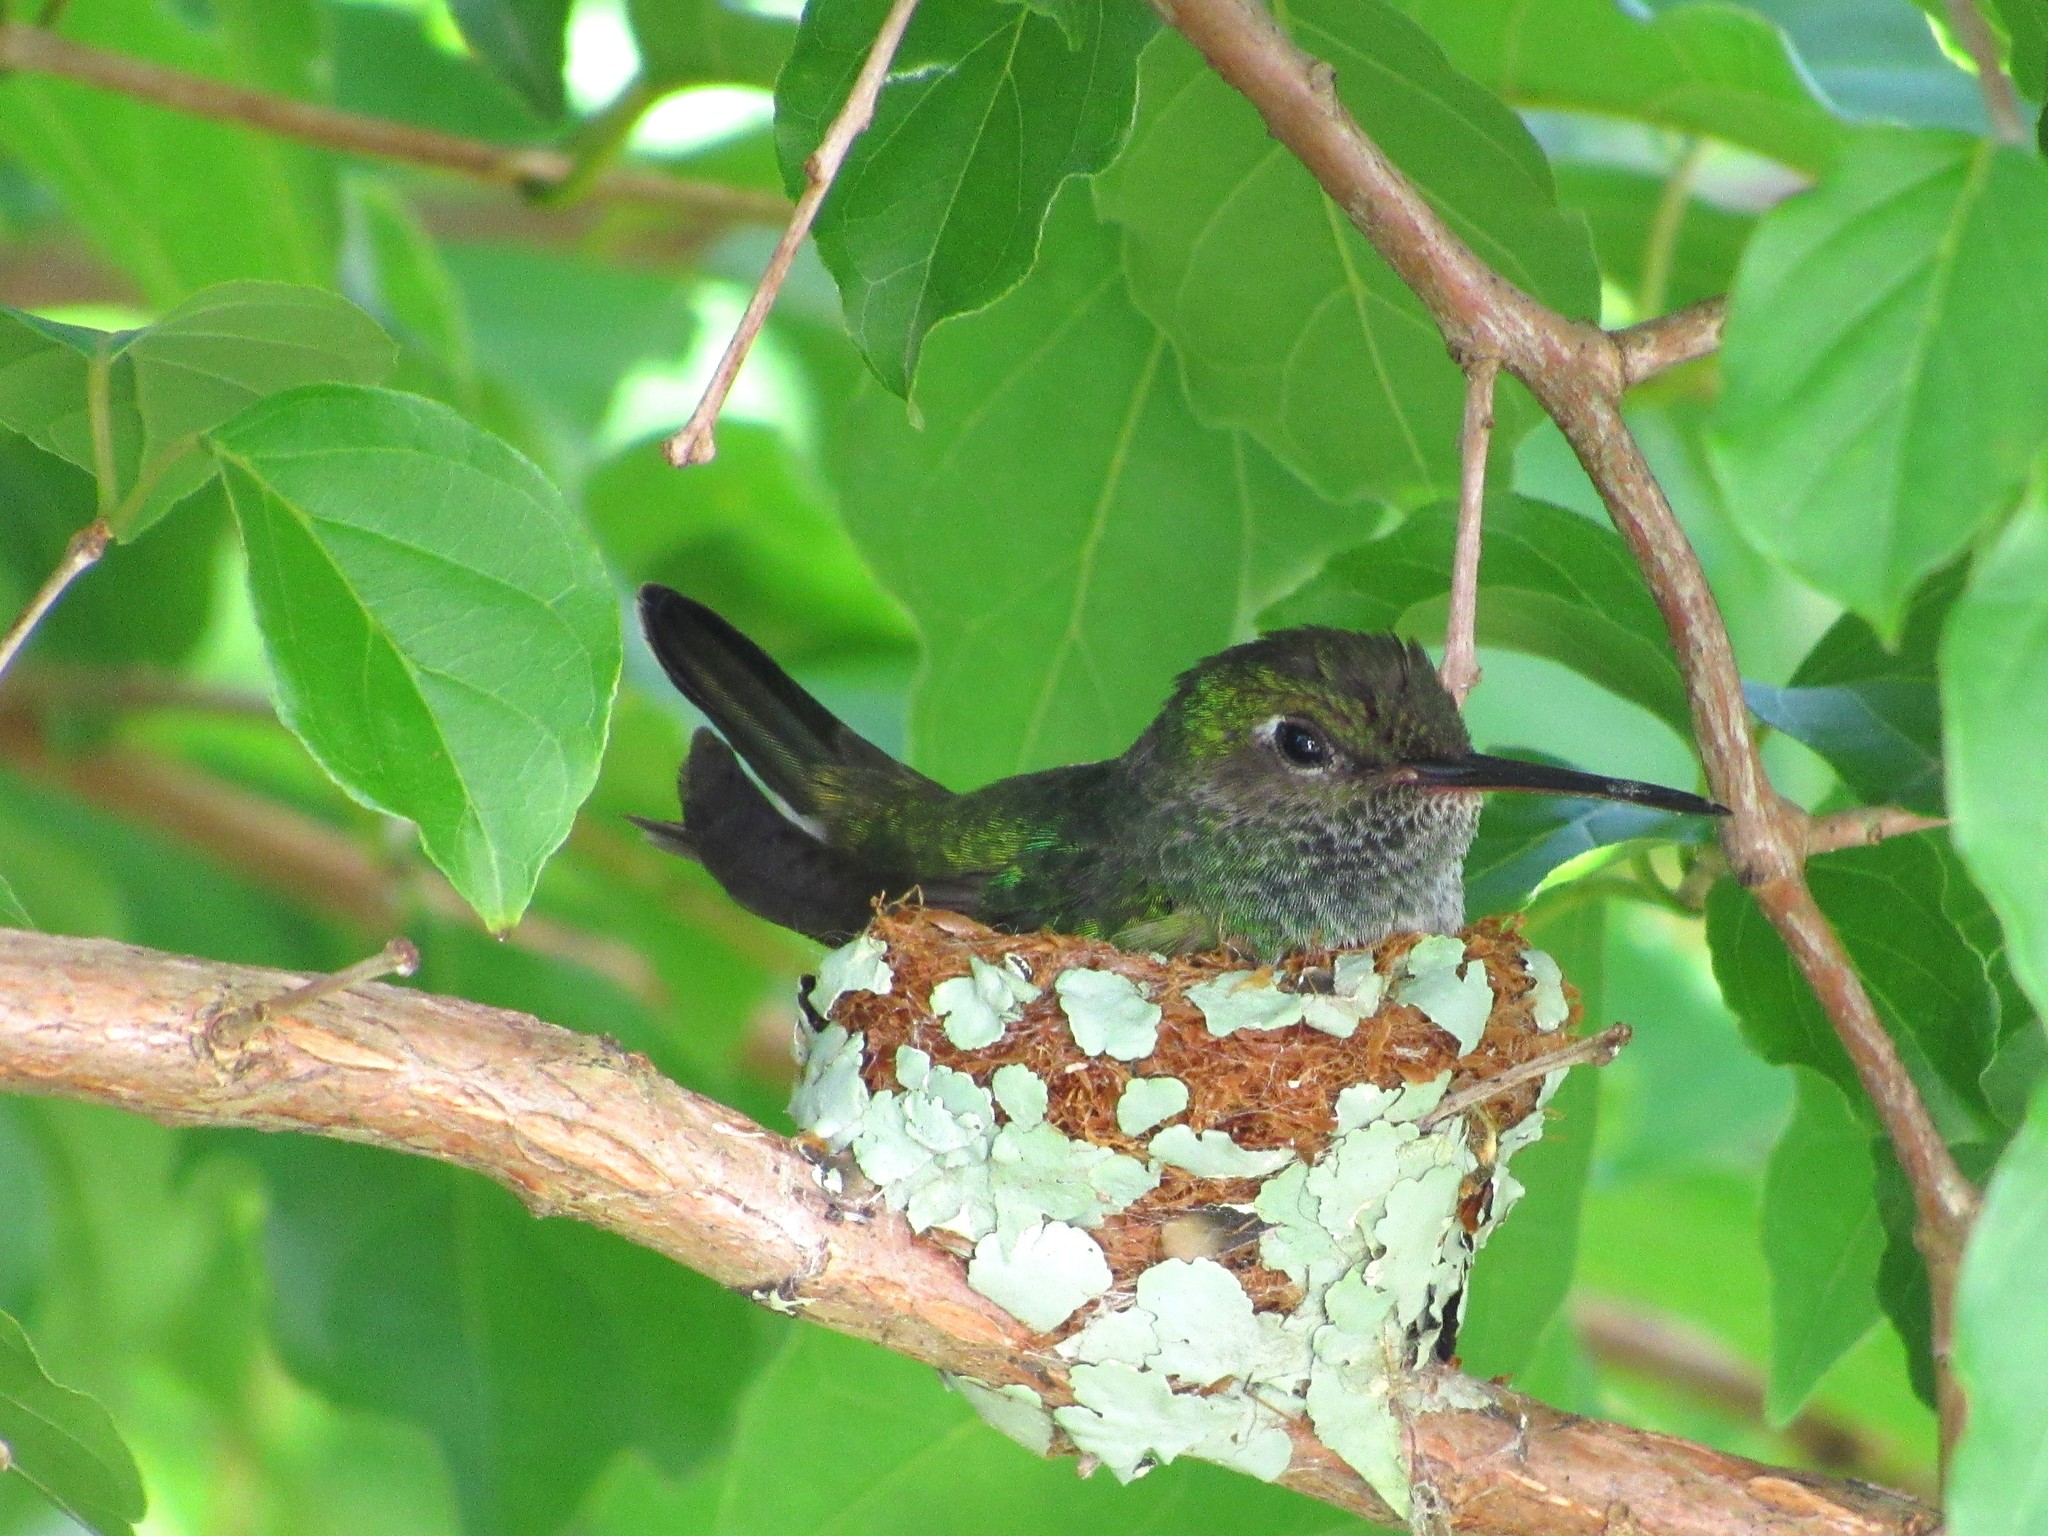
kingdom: Animalia
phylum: Chordata
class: Aves
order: Apodiformes
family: Trochilidae
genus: Chionomesa
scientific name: Chionomesa fimbriata
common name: Glittering-throated emerald
